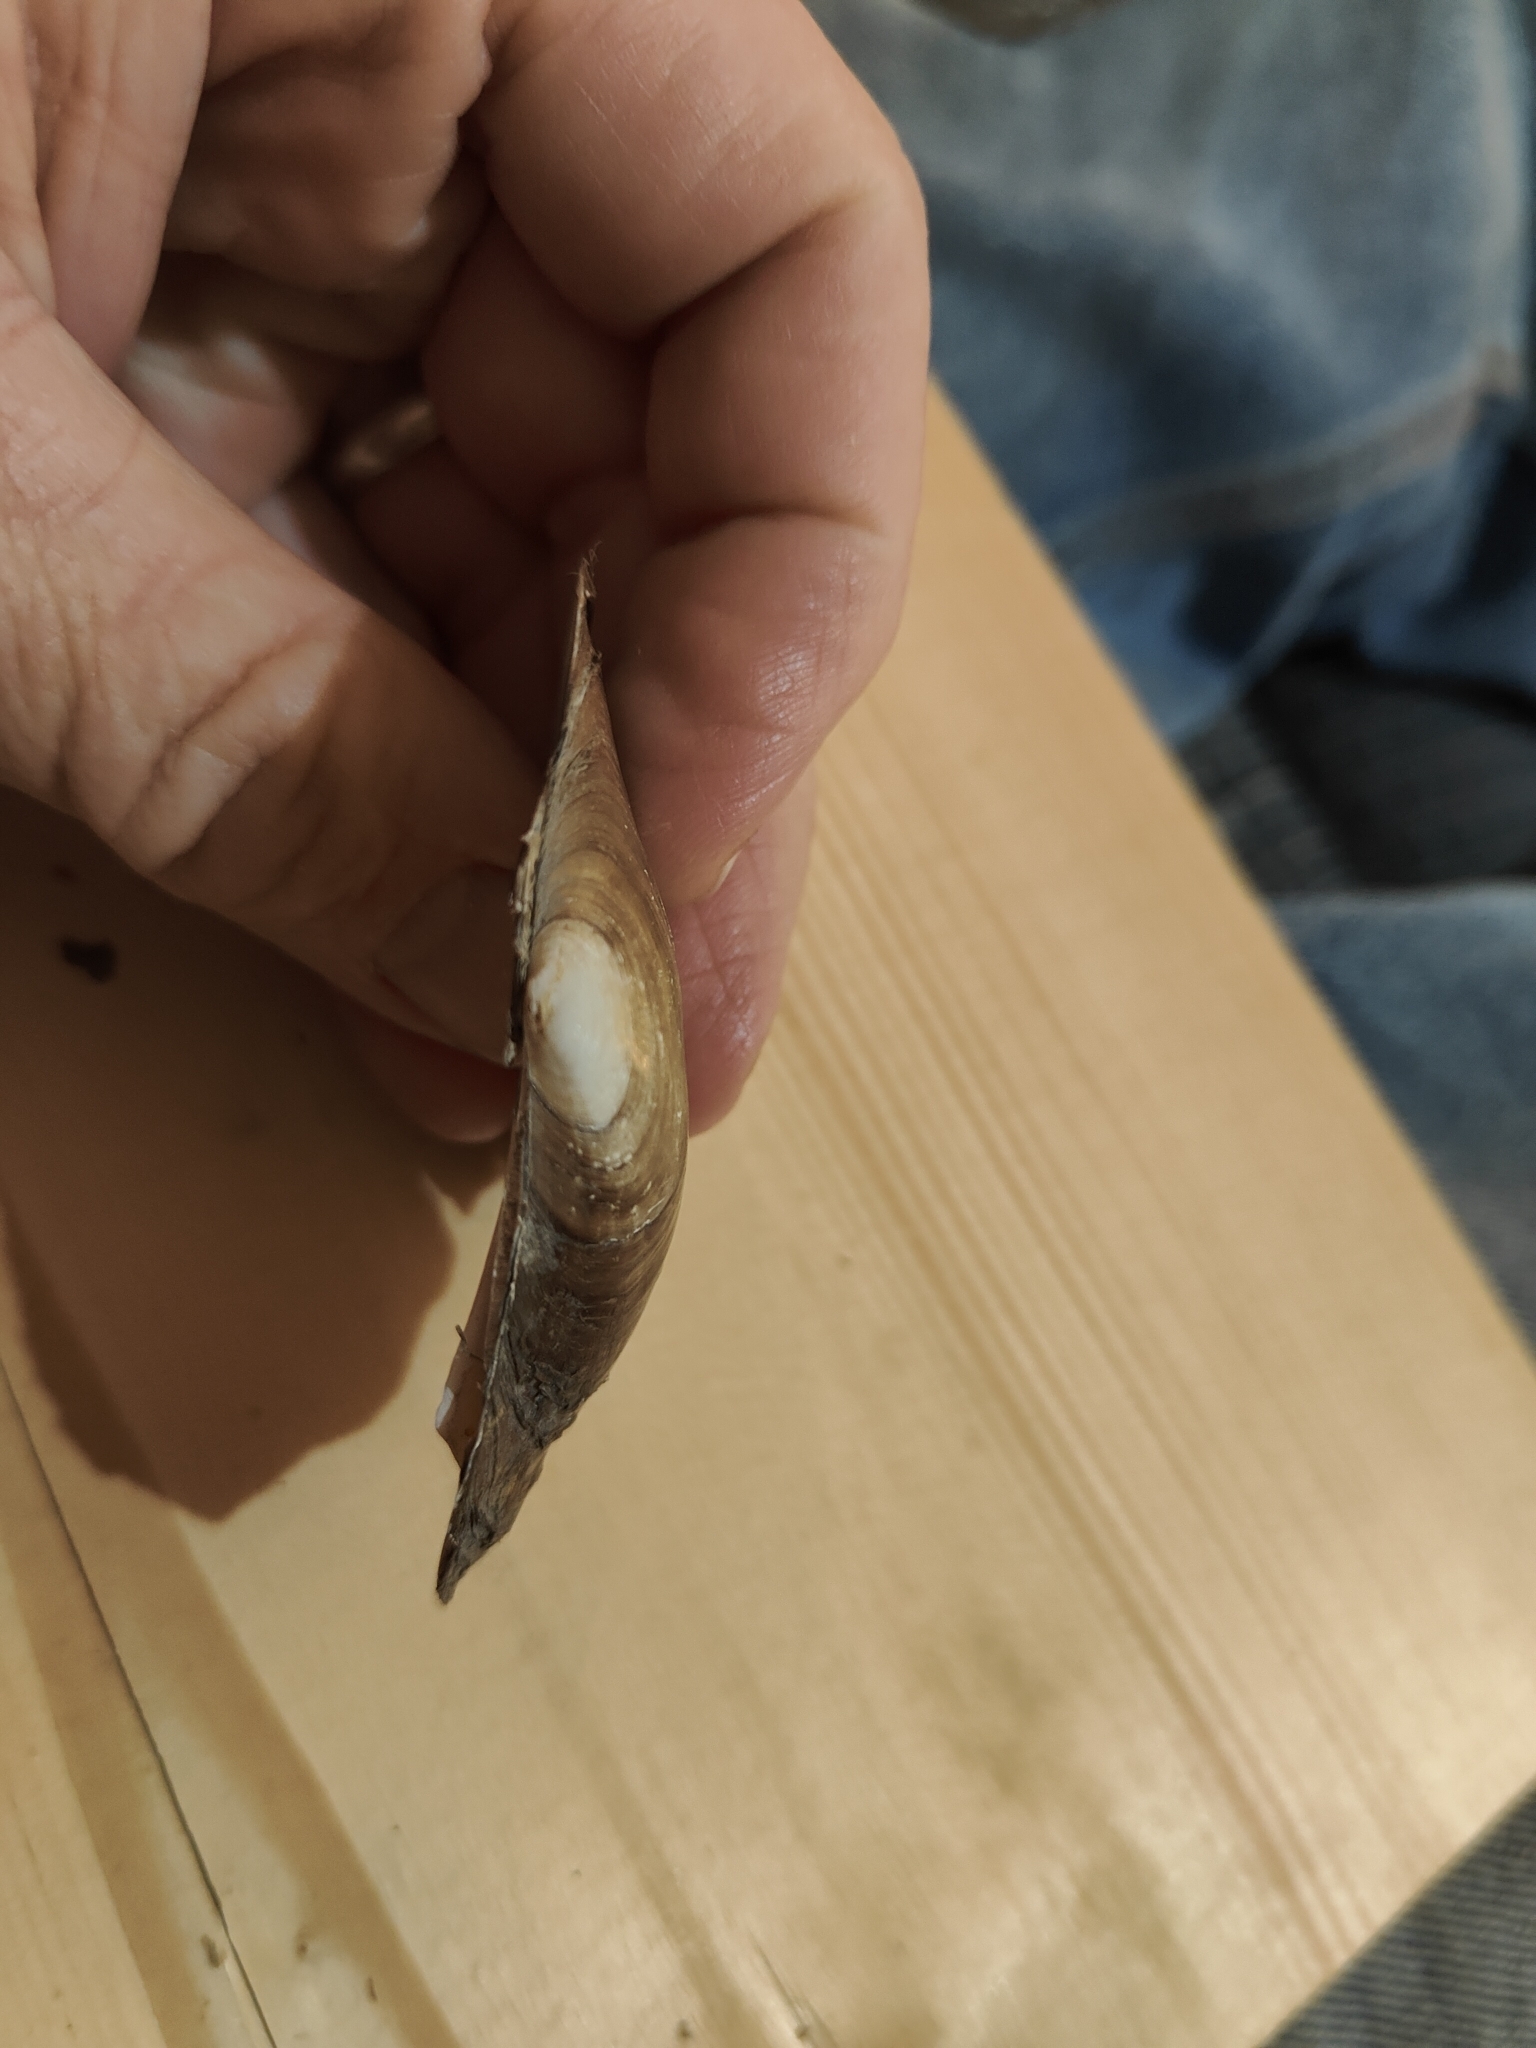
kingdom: Animalia
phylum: Mollusca
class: Bivalvia
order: Unionida
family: Unionidae
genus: Potamilus
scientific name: Potamilus fragilis
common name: Fragile papershell
